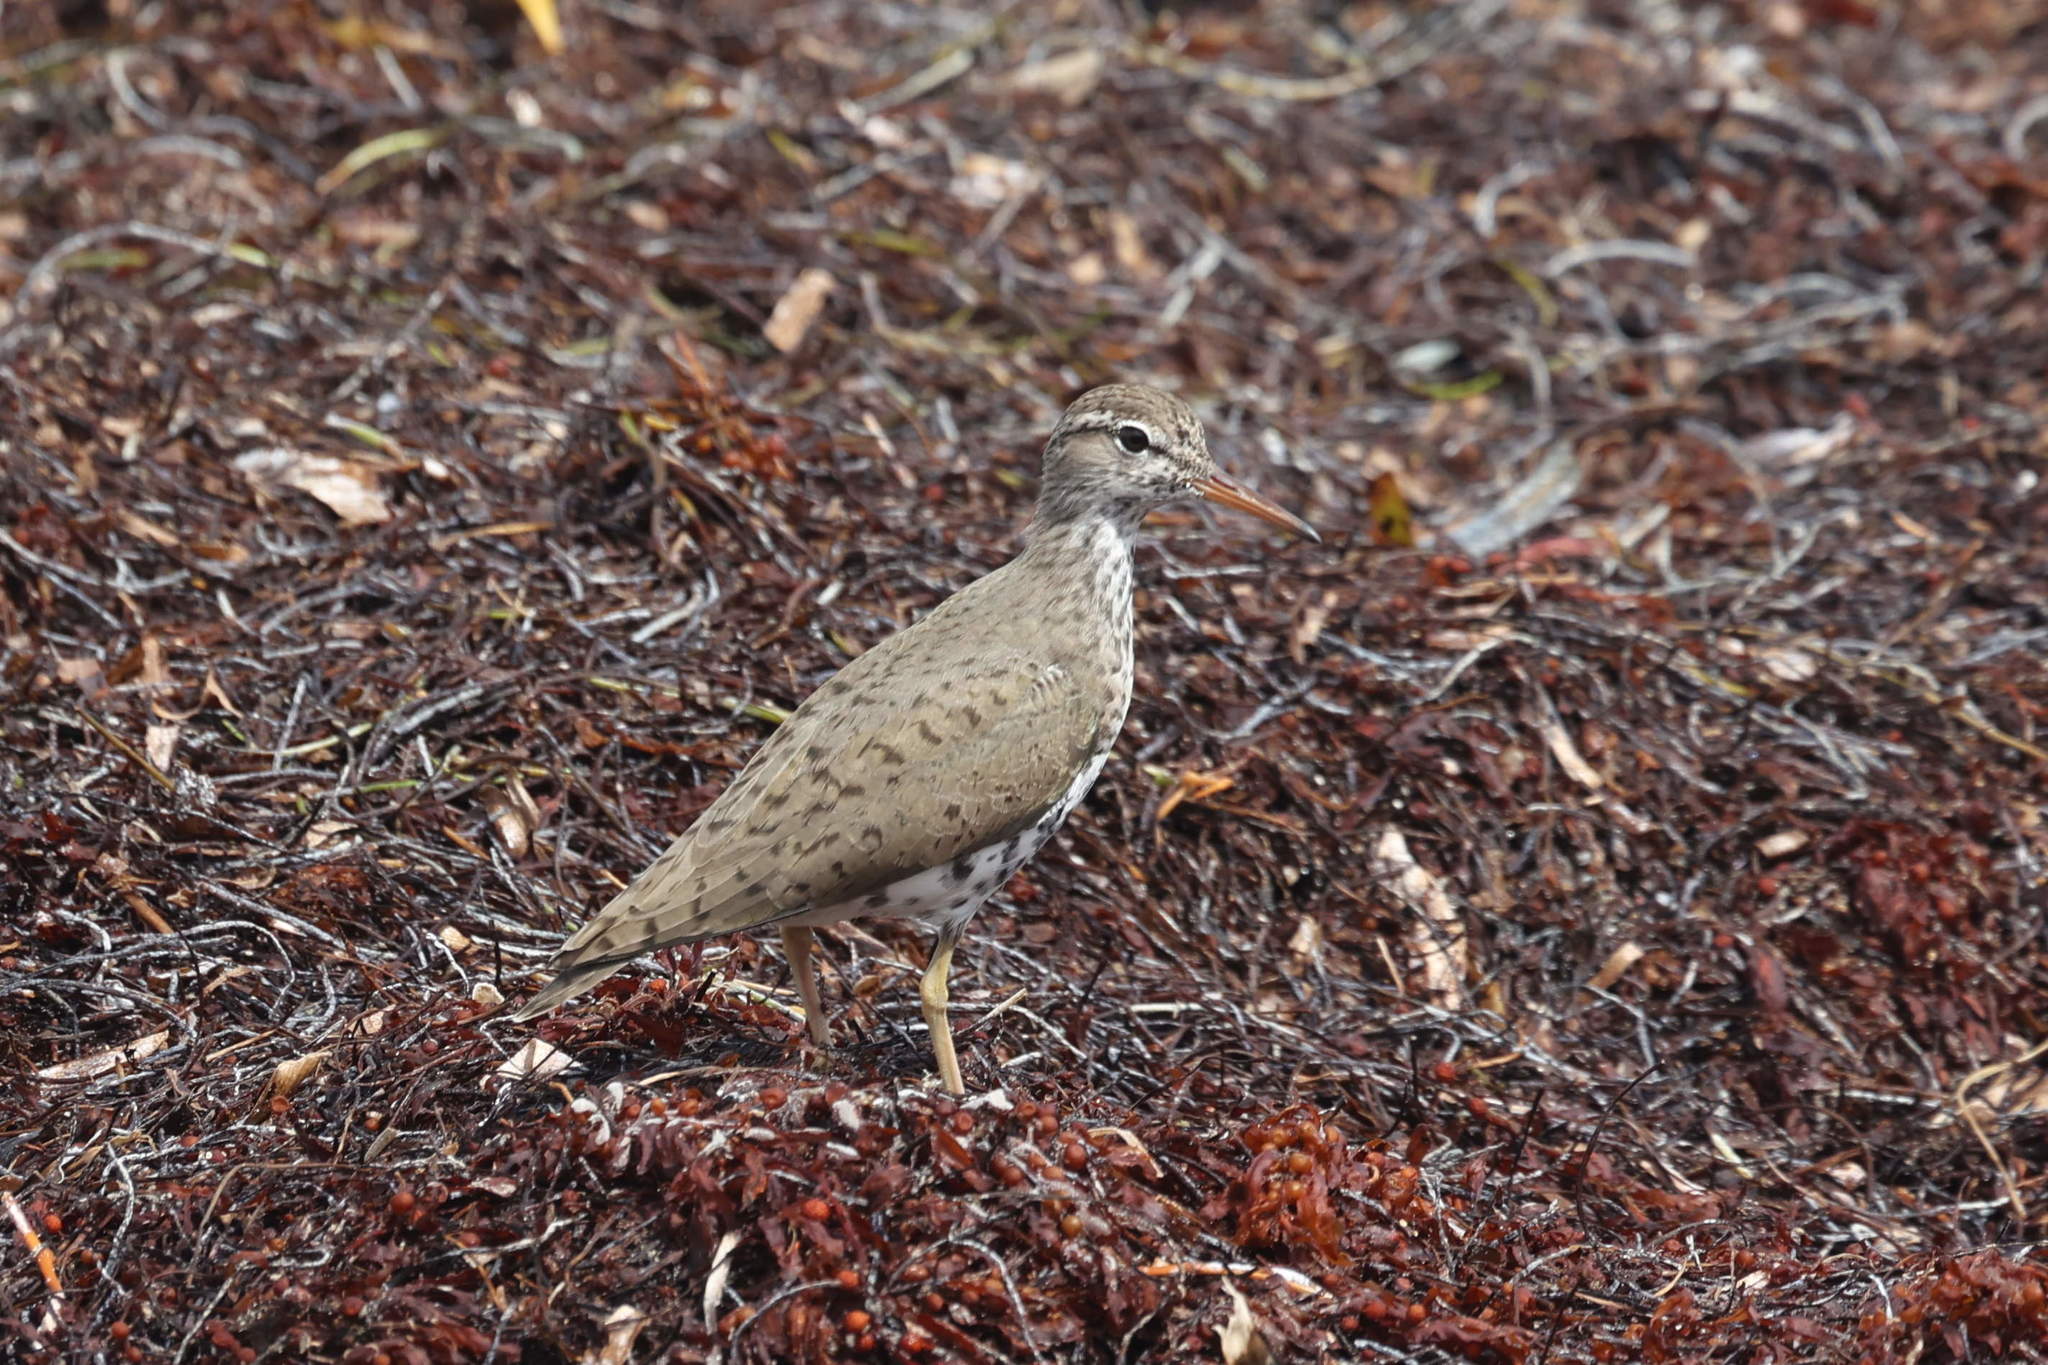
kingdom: Animalia
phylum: Chordata
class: Aves
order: Charadriiformes
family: Scolopacidae
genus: Actitis
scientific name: Actitis macularius
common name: Spotted sandpiper
